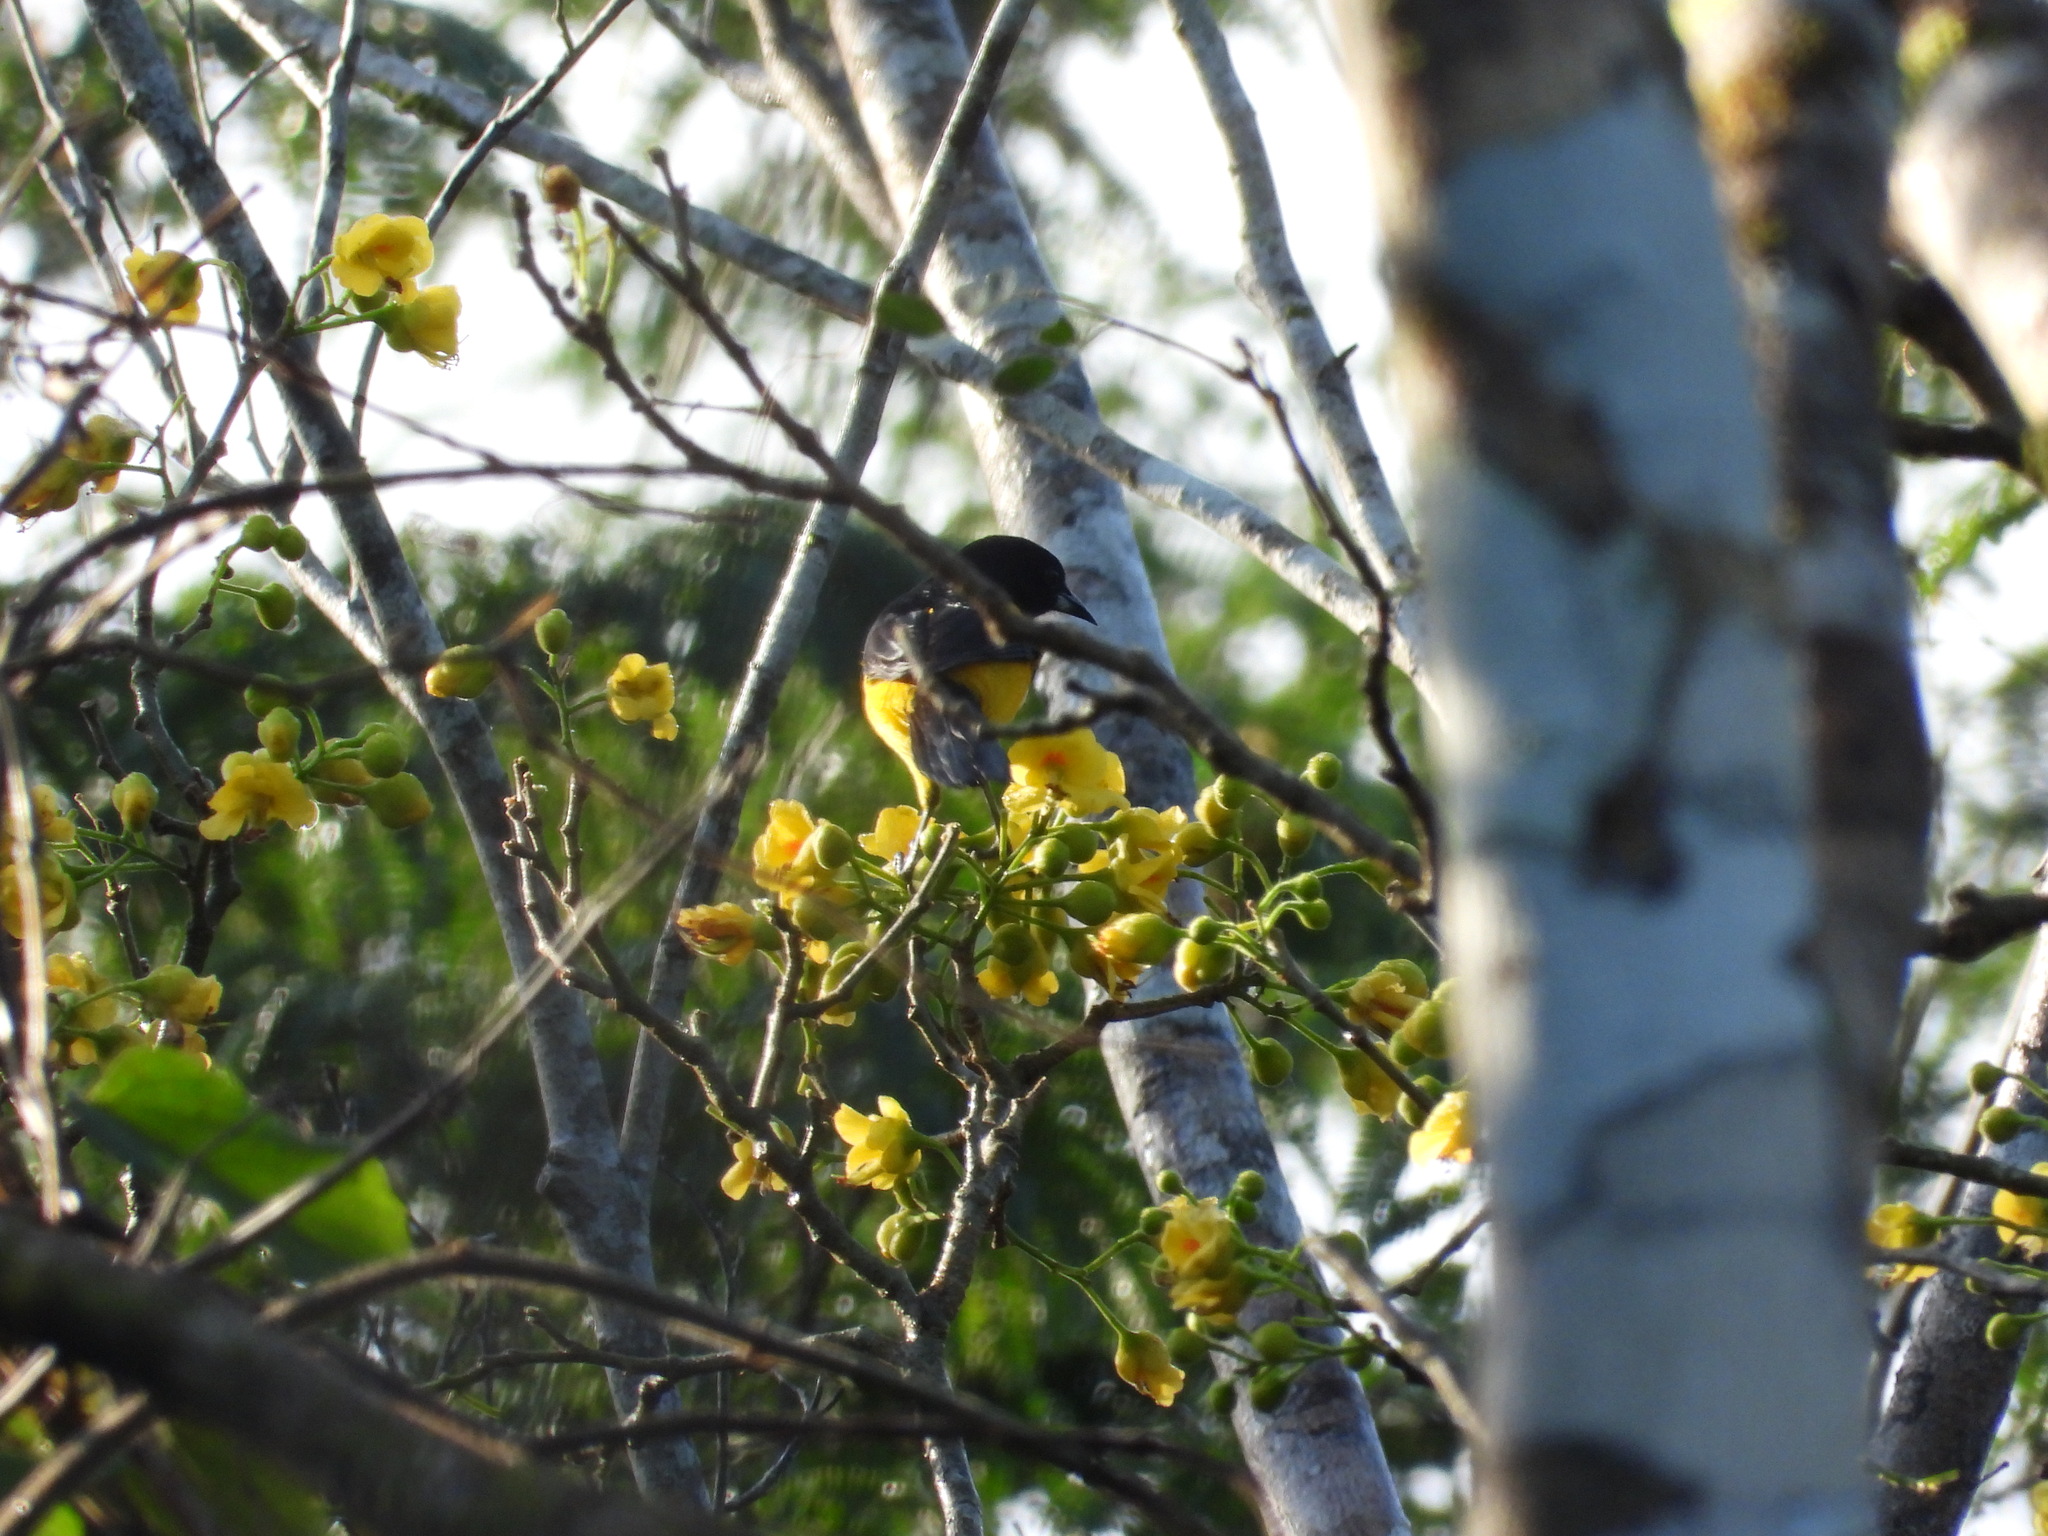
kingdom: Animalia
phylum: Chordata
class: Aves
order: Passeriformes
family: Icteridae
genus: Icterus
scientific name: Icterus prosthemelas
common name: Black-cowled oriole
